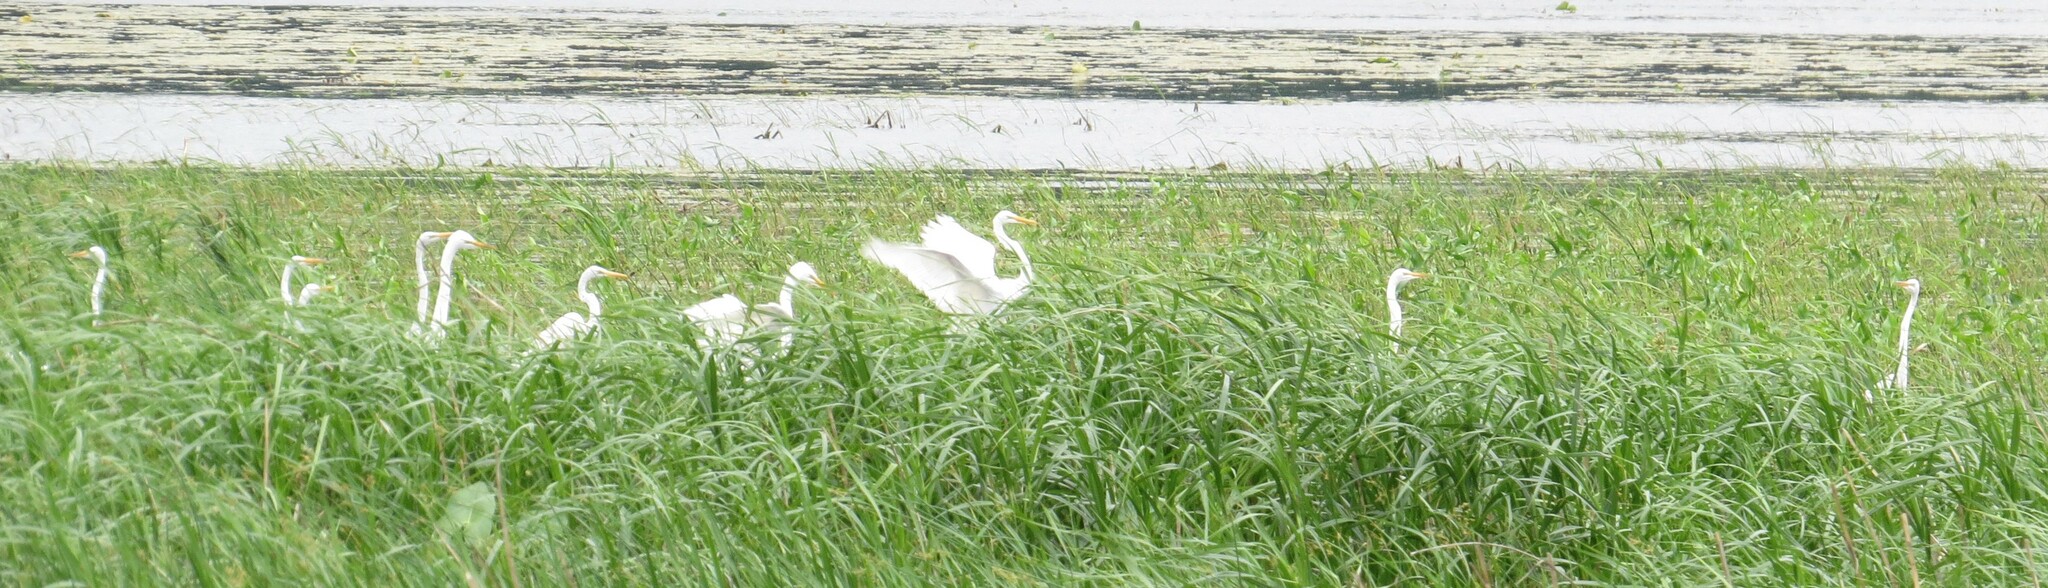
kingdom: Animalia
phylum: Chordata
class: Aves
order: Pelecaniformes
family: Ardeidae
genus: Ardea
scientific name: Ardea alba
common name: Great egret
